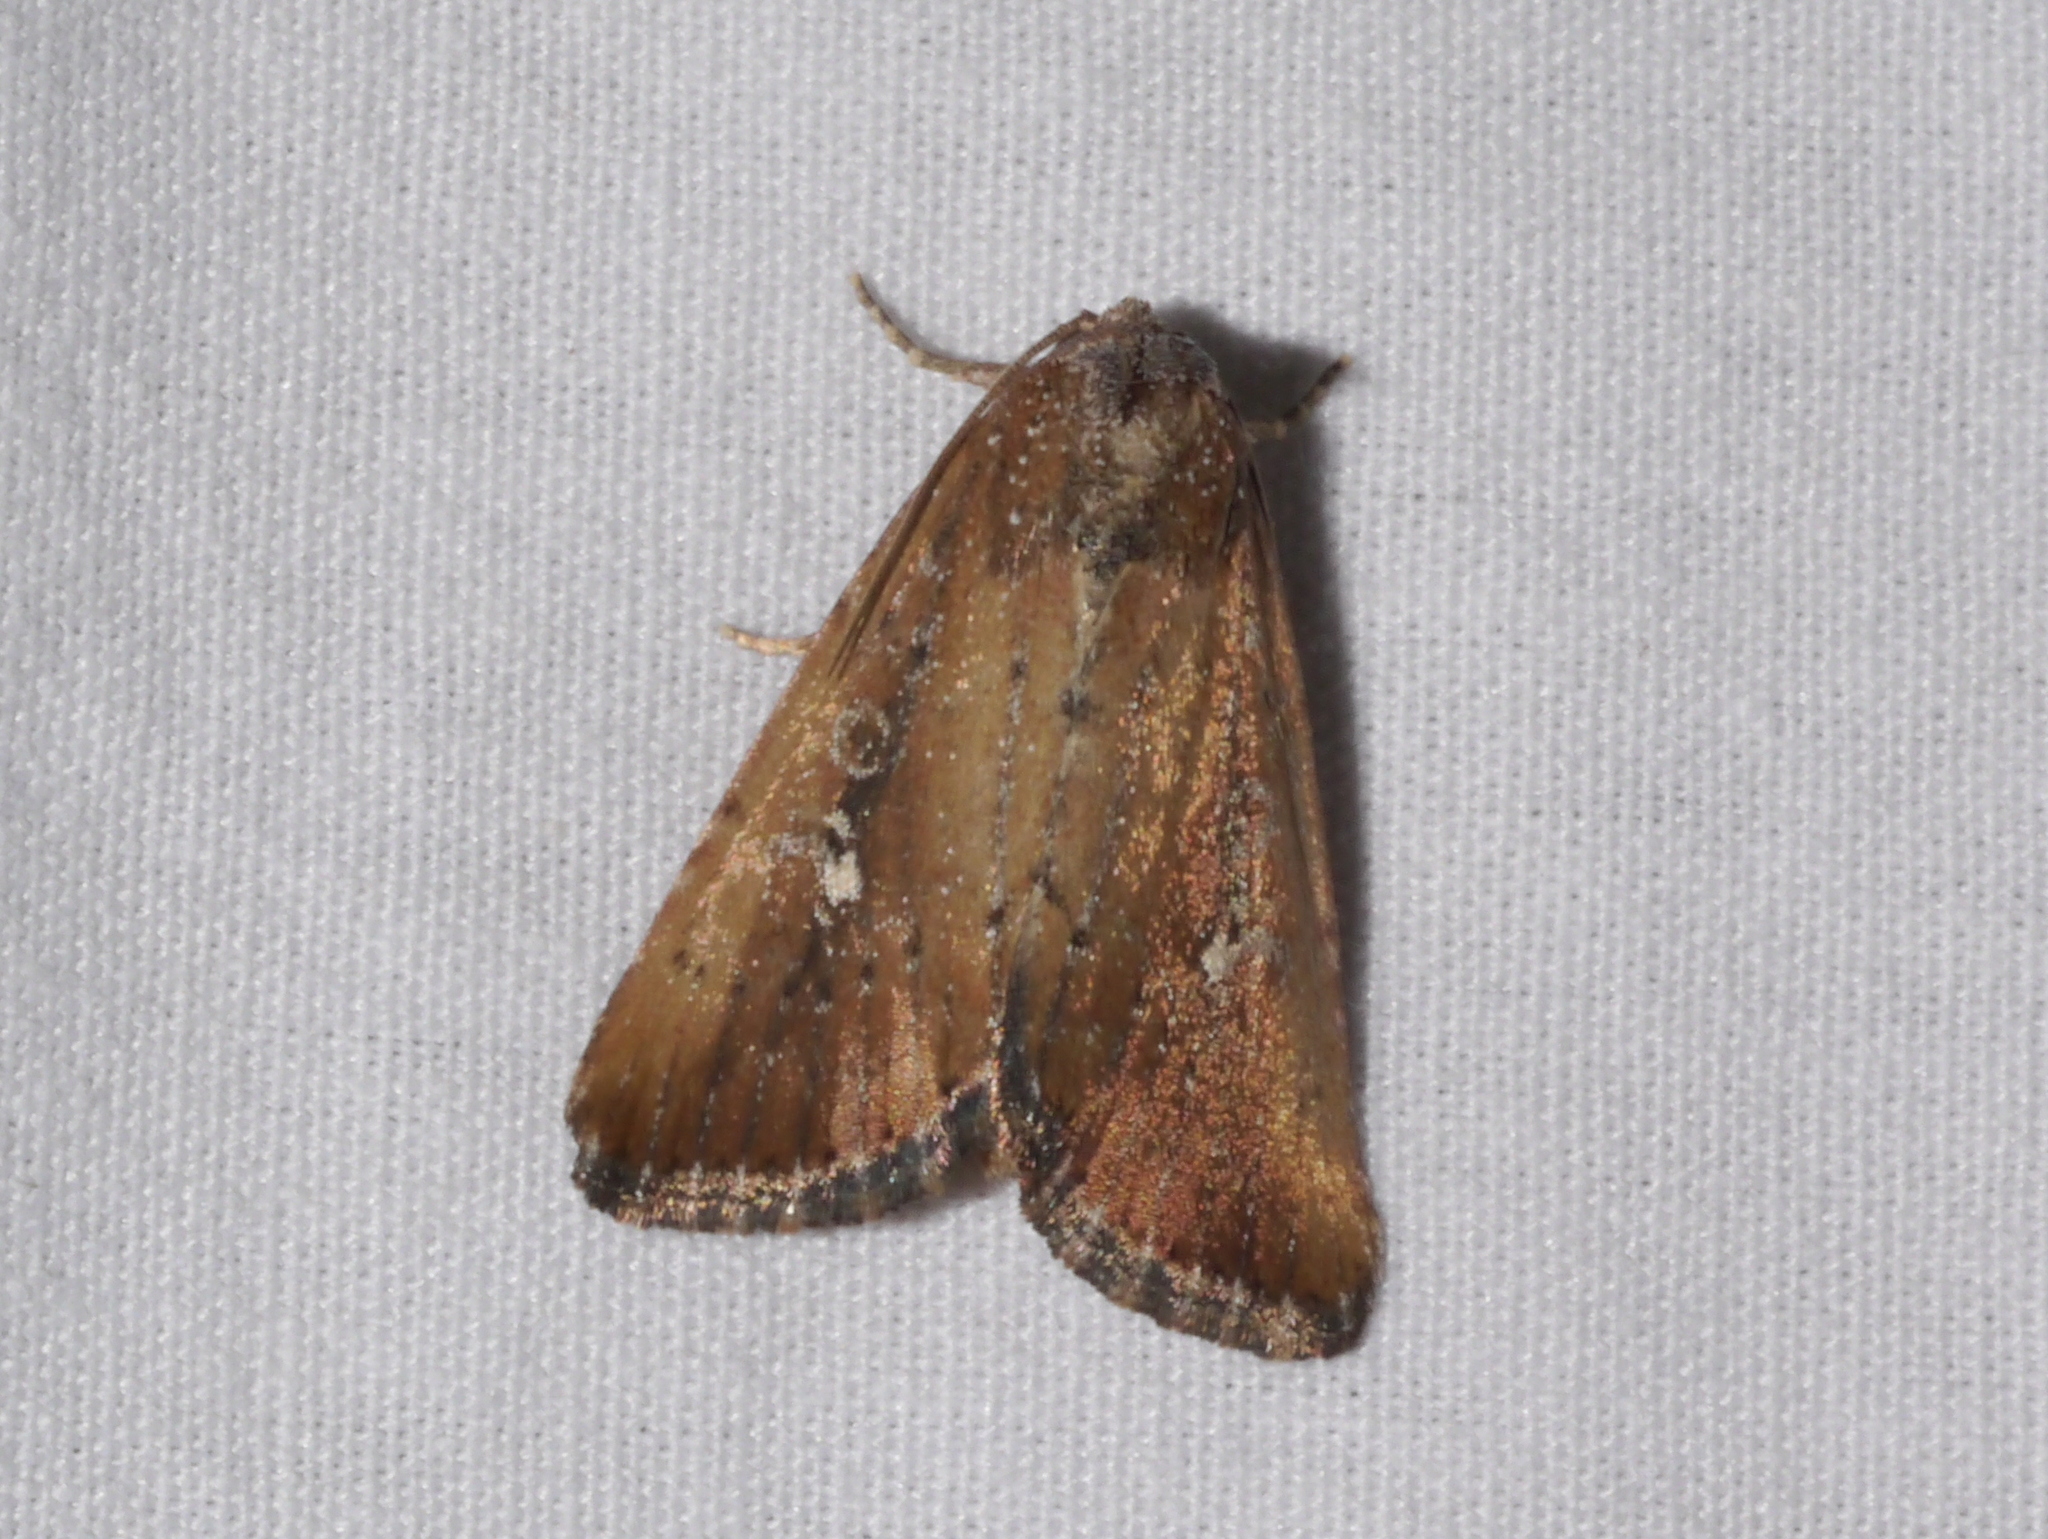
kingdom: Animalia
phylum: Arthropoda
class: Insecta
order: Lepidoptera
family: Noctuidae
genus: Condica
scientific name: Condica videns
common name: White-dotted groundling
